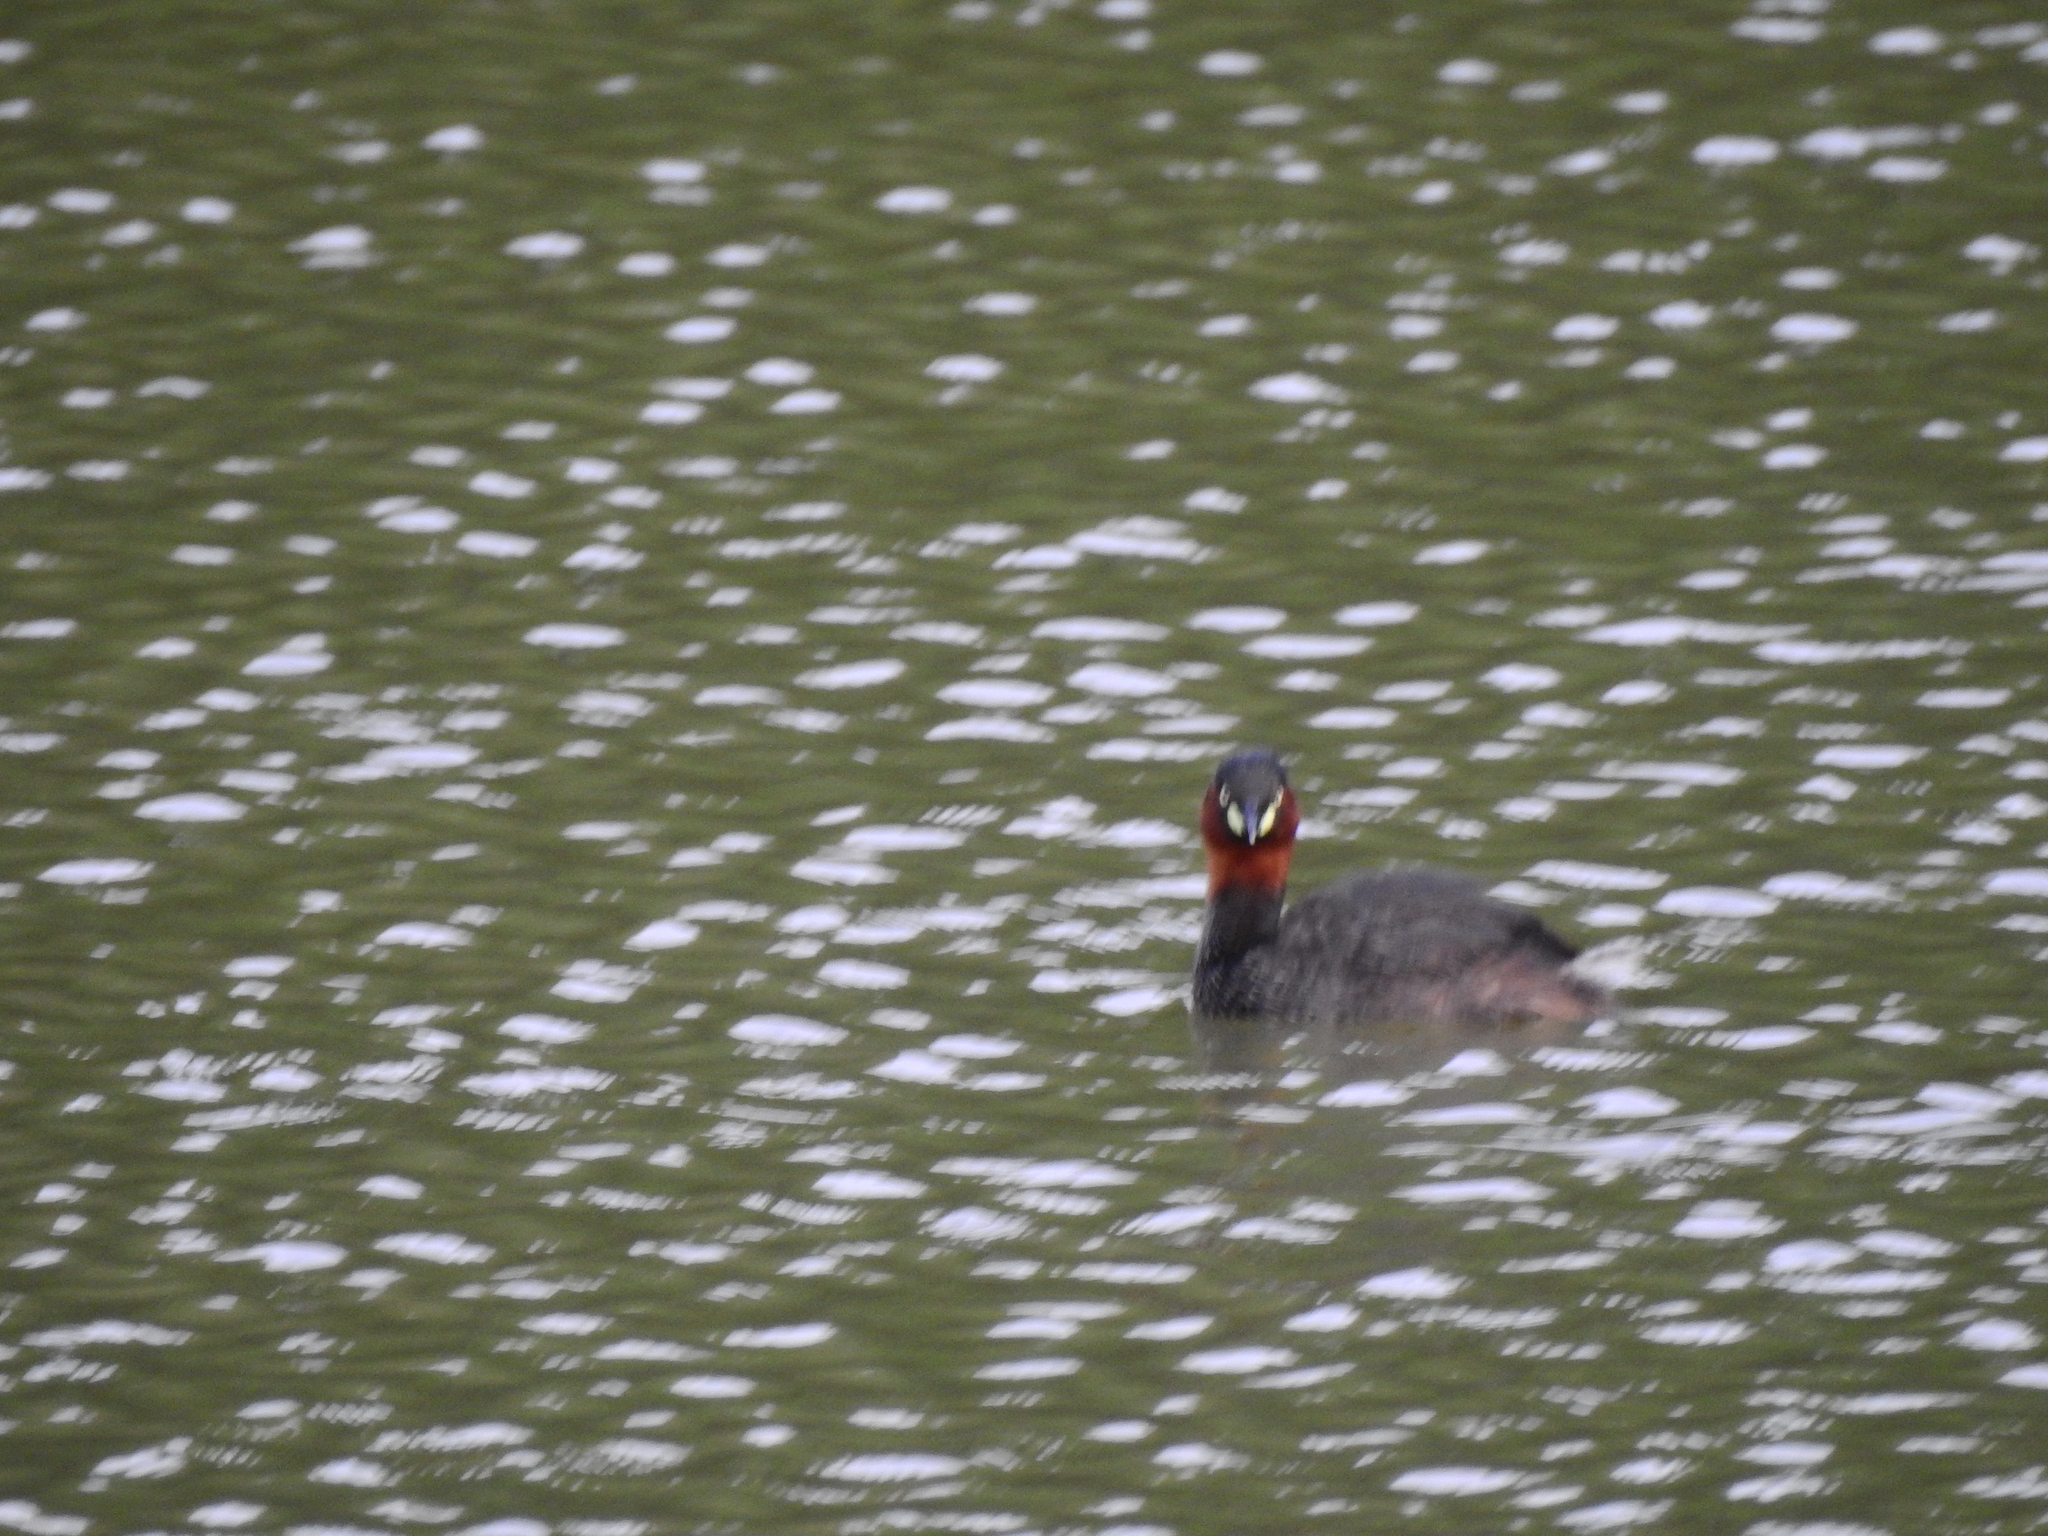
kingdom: Animalia
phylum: Chordata
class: Aves
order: Podicipediformes
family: Podicipedidae
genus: Tachybaptus
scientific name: Tachybaptus ruficollis
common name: Little grebe
